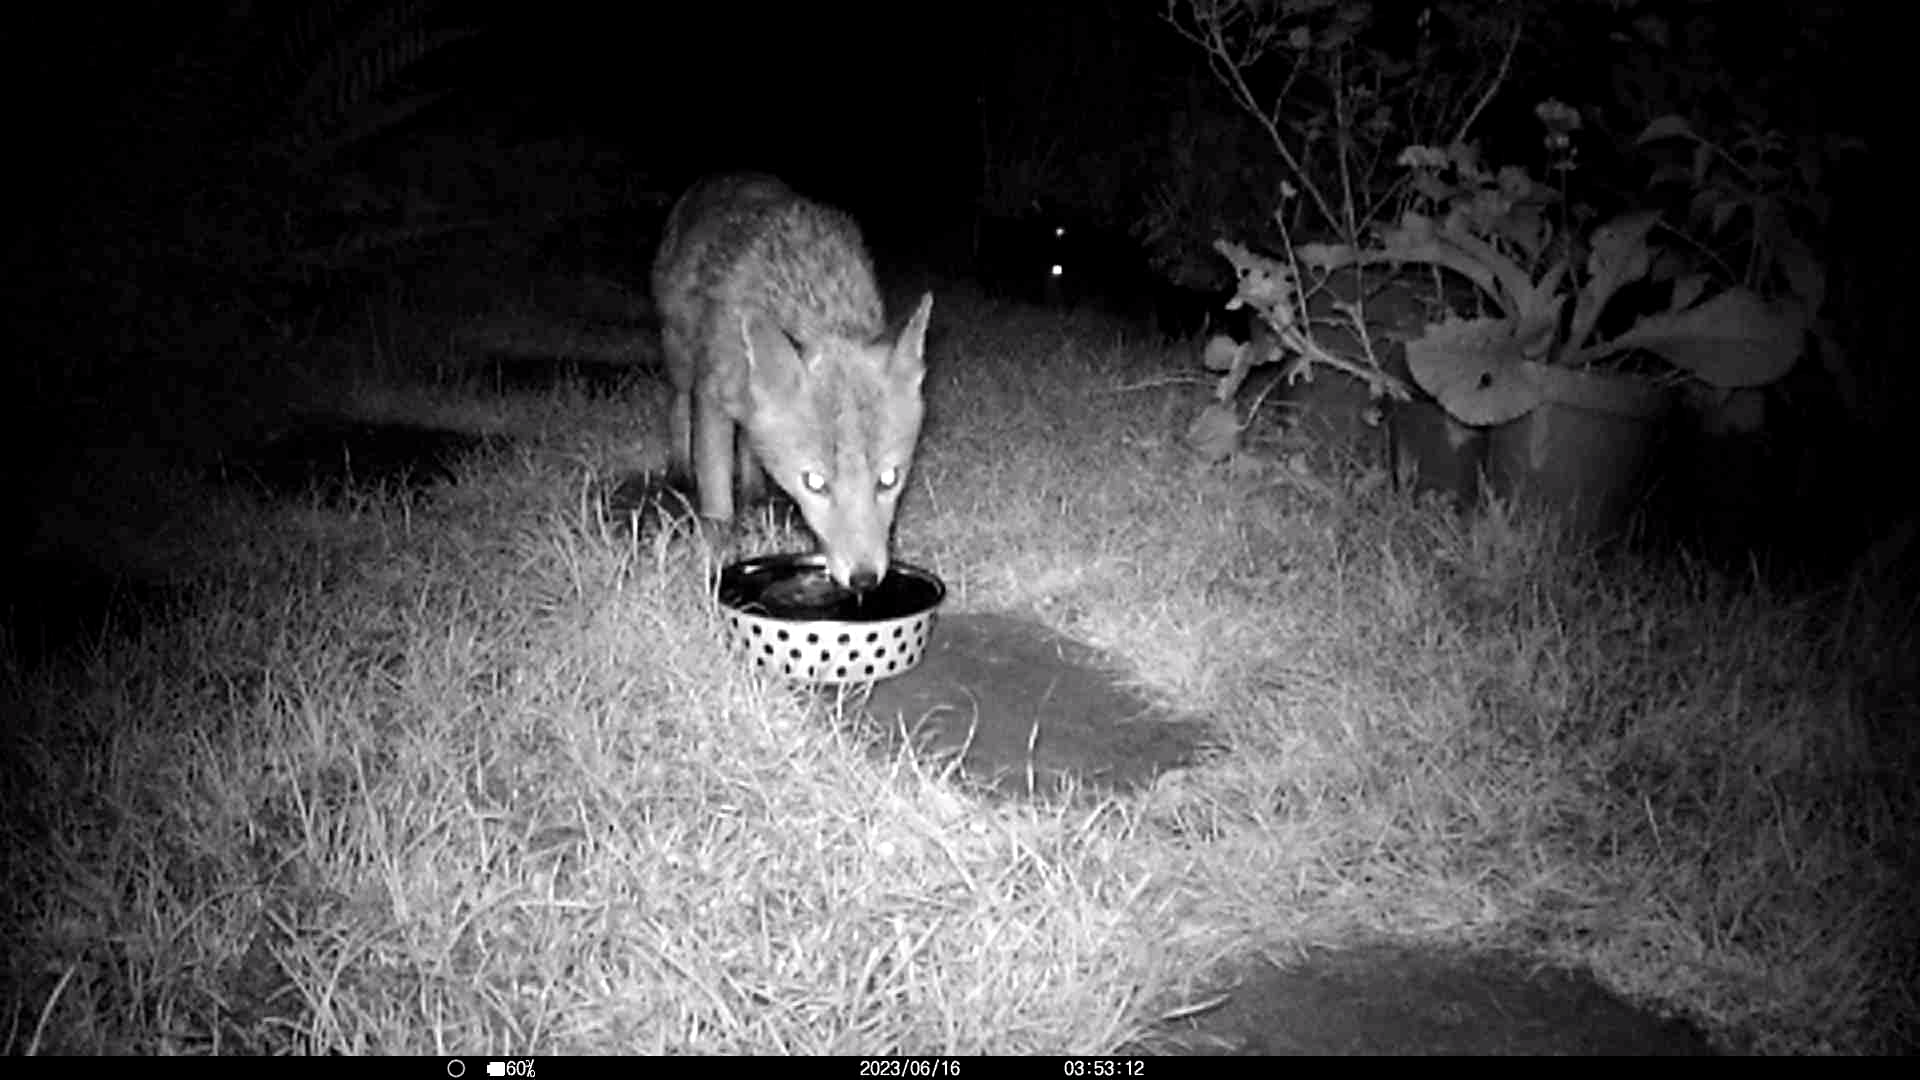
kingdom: Animalia
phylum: Chordata
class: Mammalia
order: Carnivora
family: Canidae
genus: Vulpes
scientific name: Vulpes vulpes
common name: Red fox
